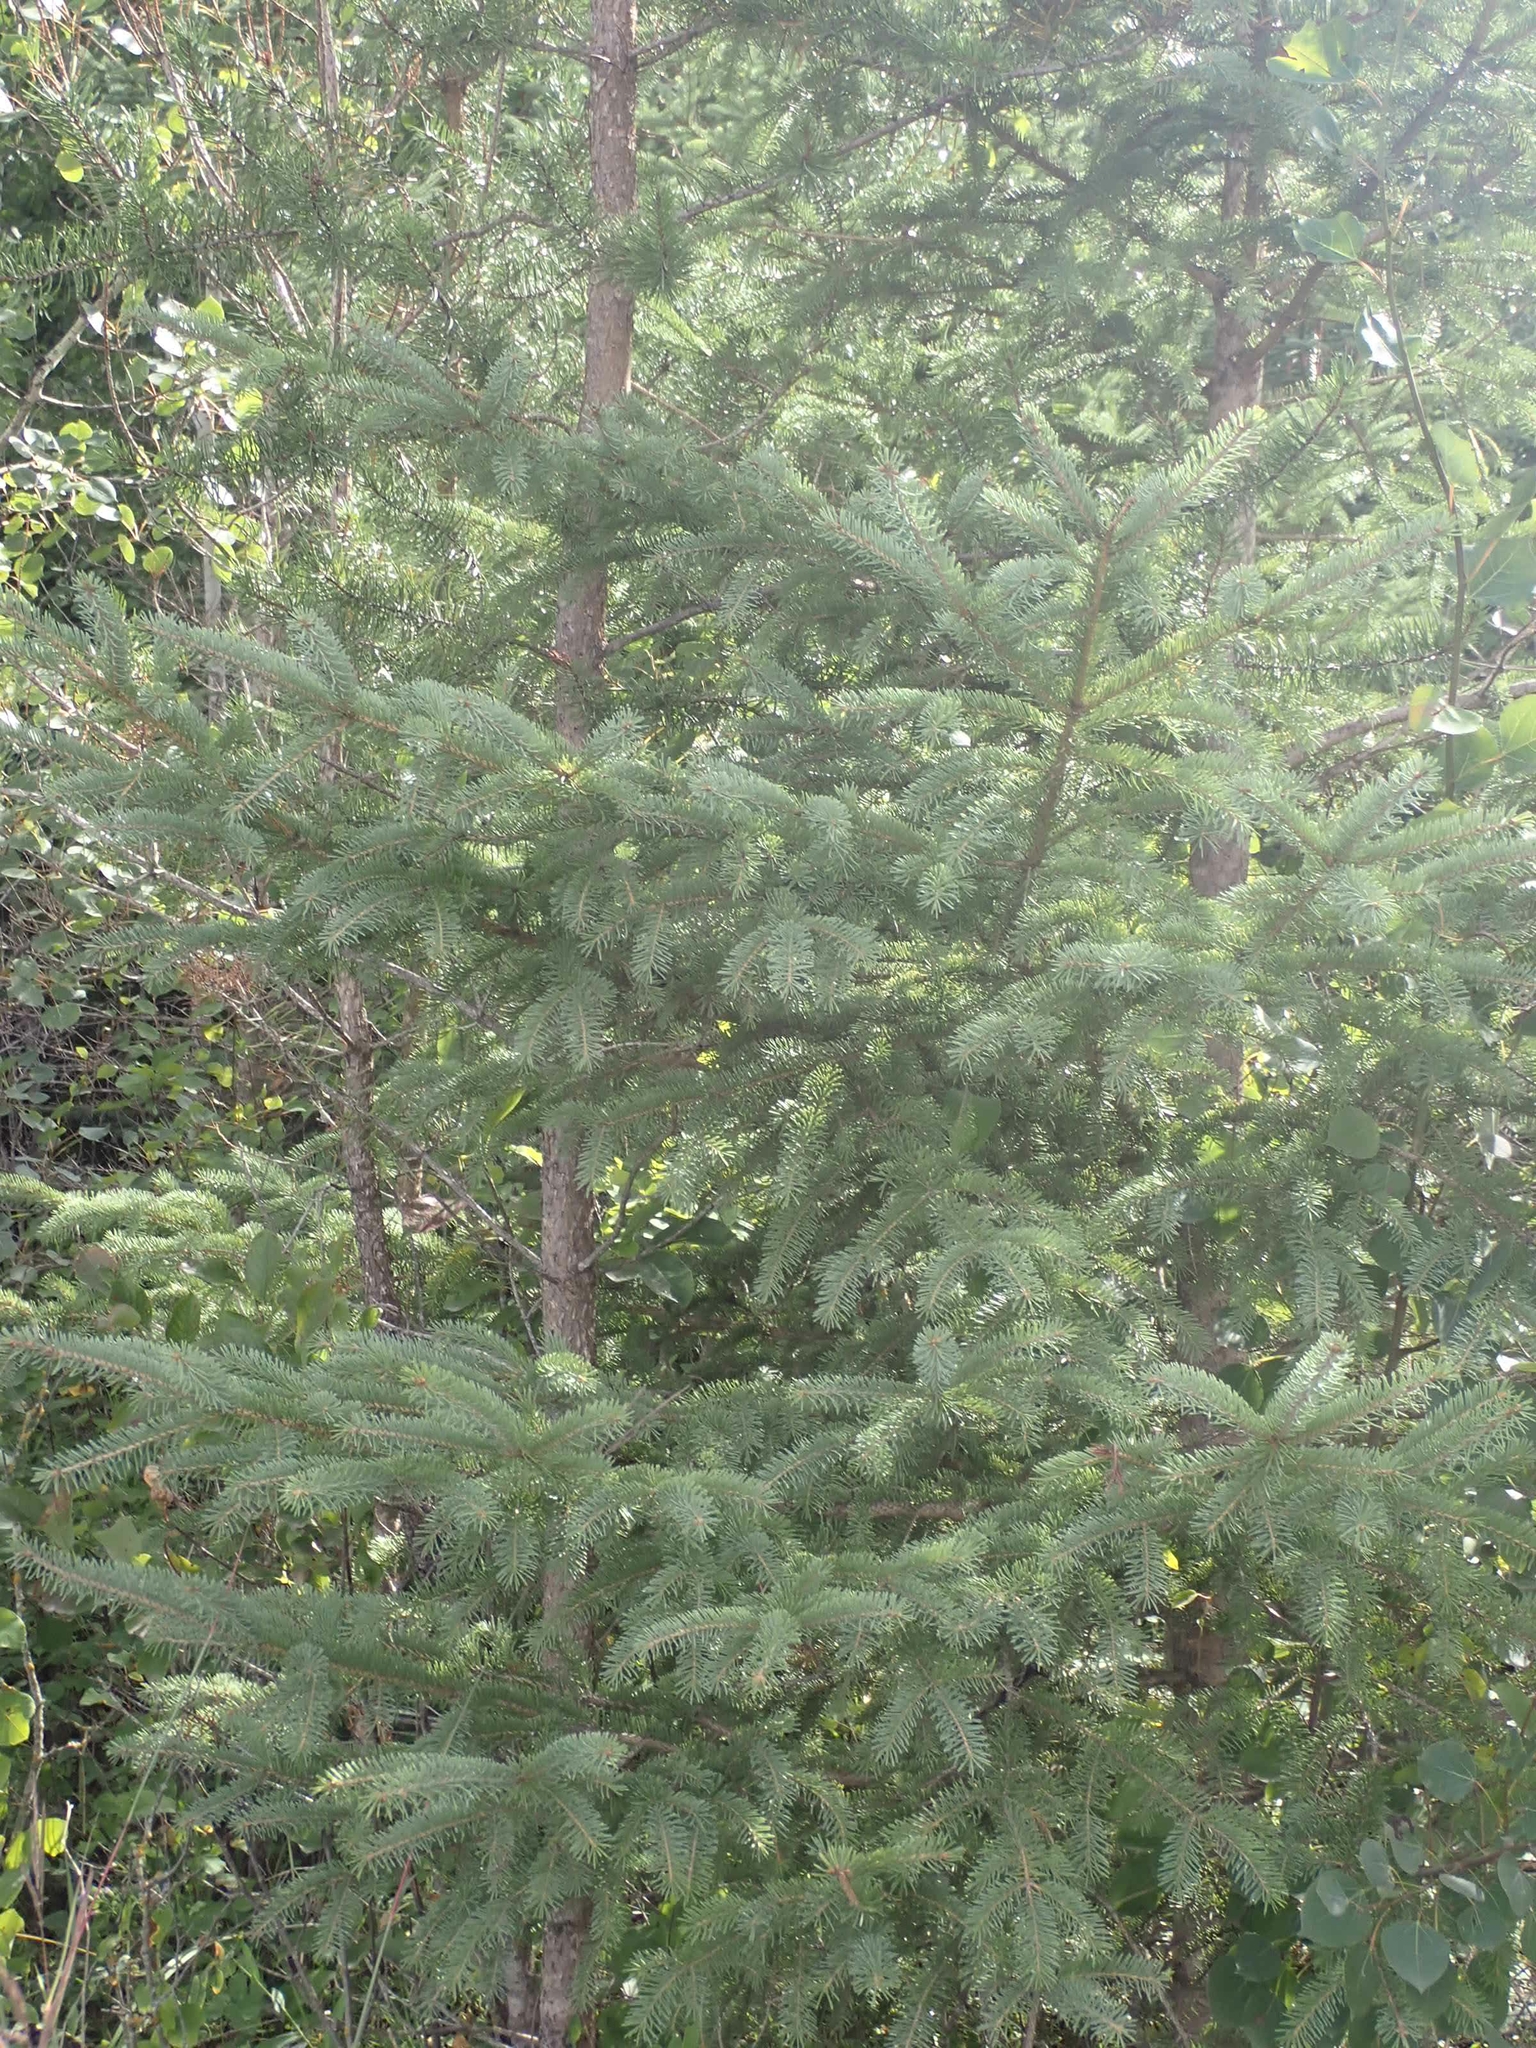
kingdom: Plantae
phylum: Tracheophyta
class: Pinopsida
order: Pinales
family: Pinaceae
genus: Picea
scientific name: Picea glauca
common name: White spruce
